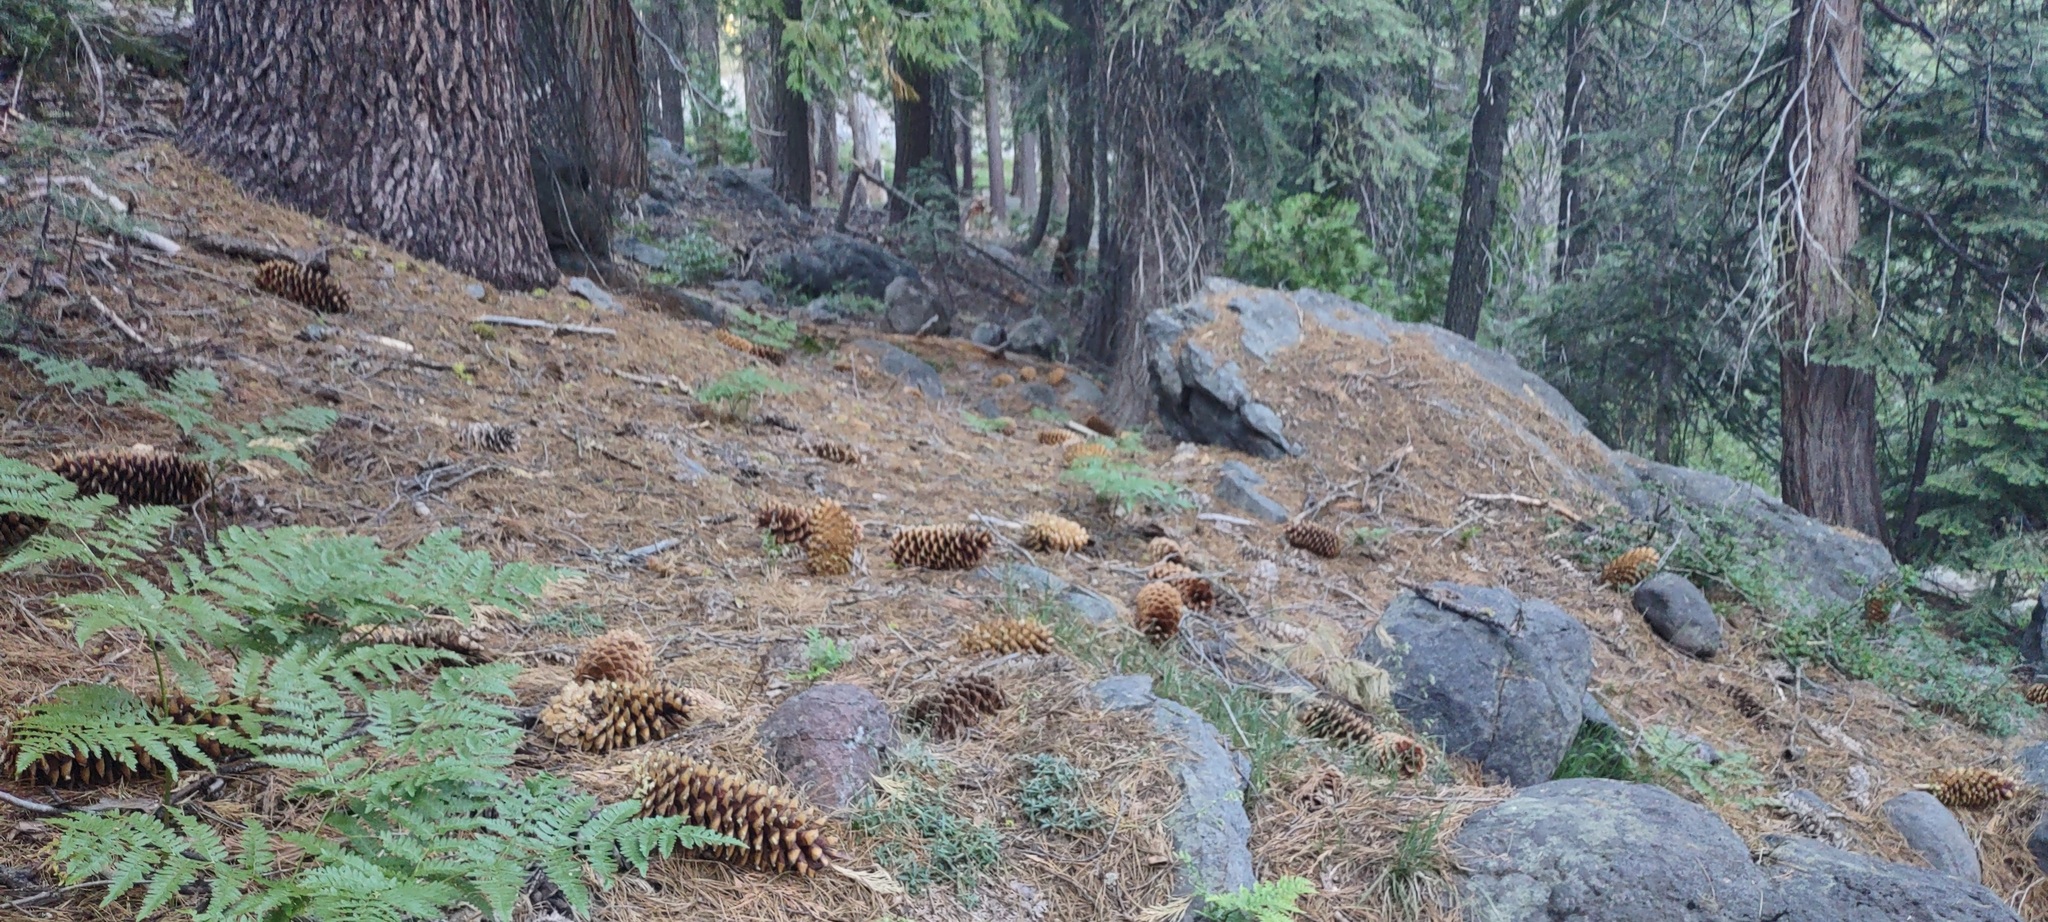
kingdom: Plantae
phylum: Tracheophyta
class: Pinopsida
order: Pinales
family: Pinaceae
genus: Pinus
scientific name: Pinus lambertiana
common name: Sugar pine
